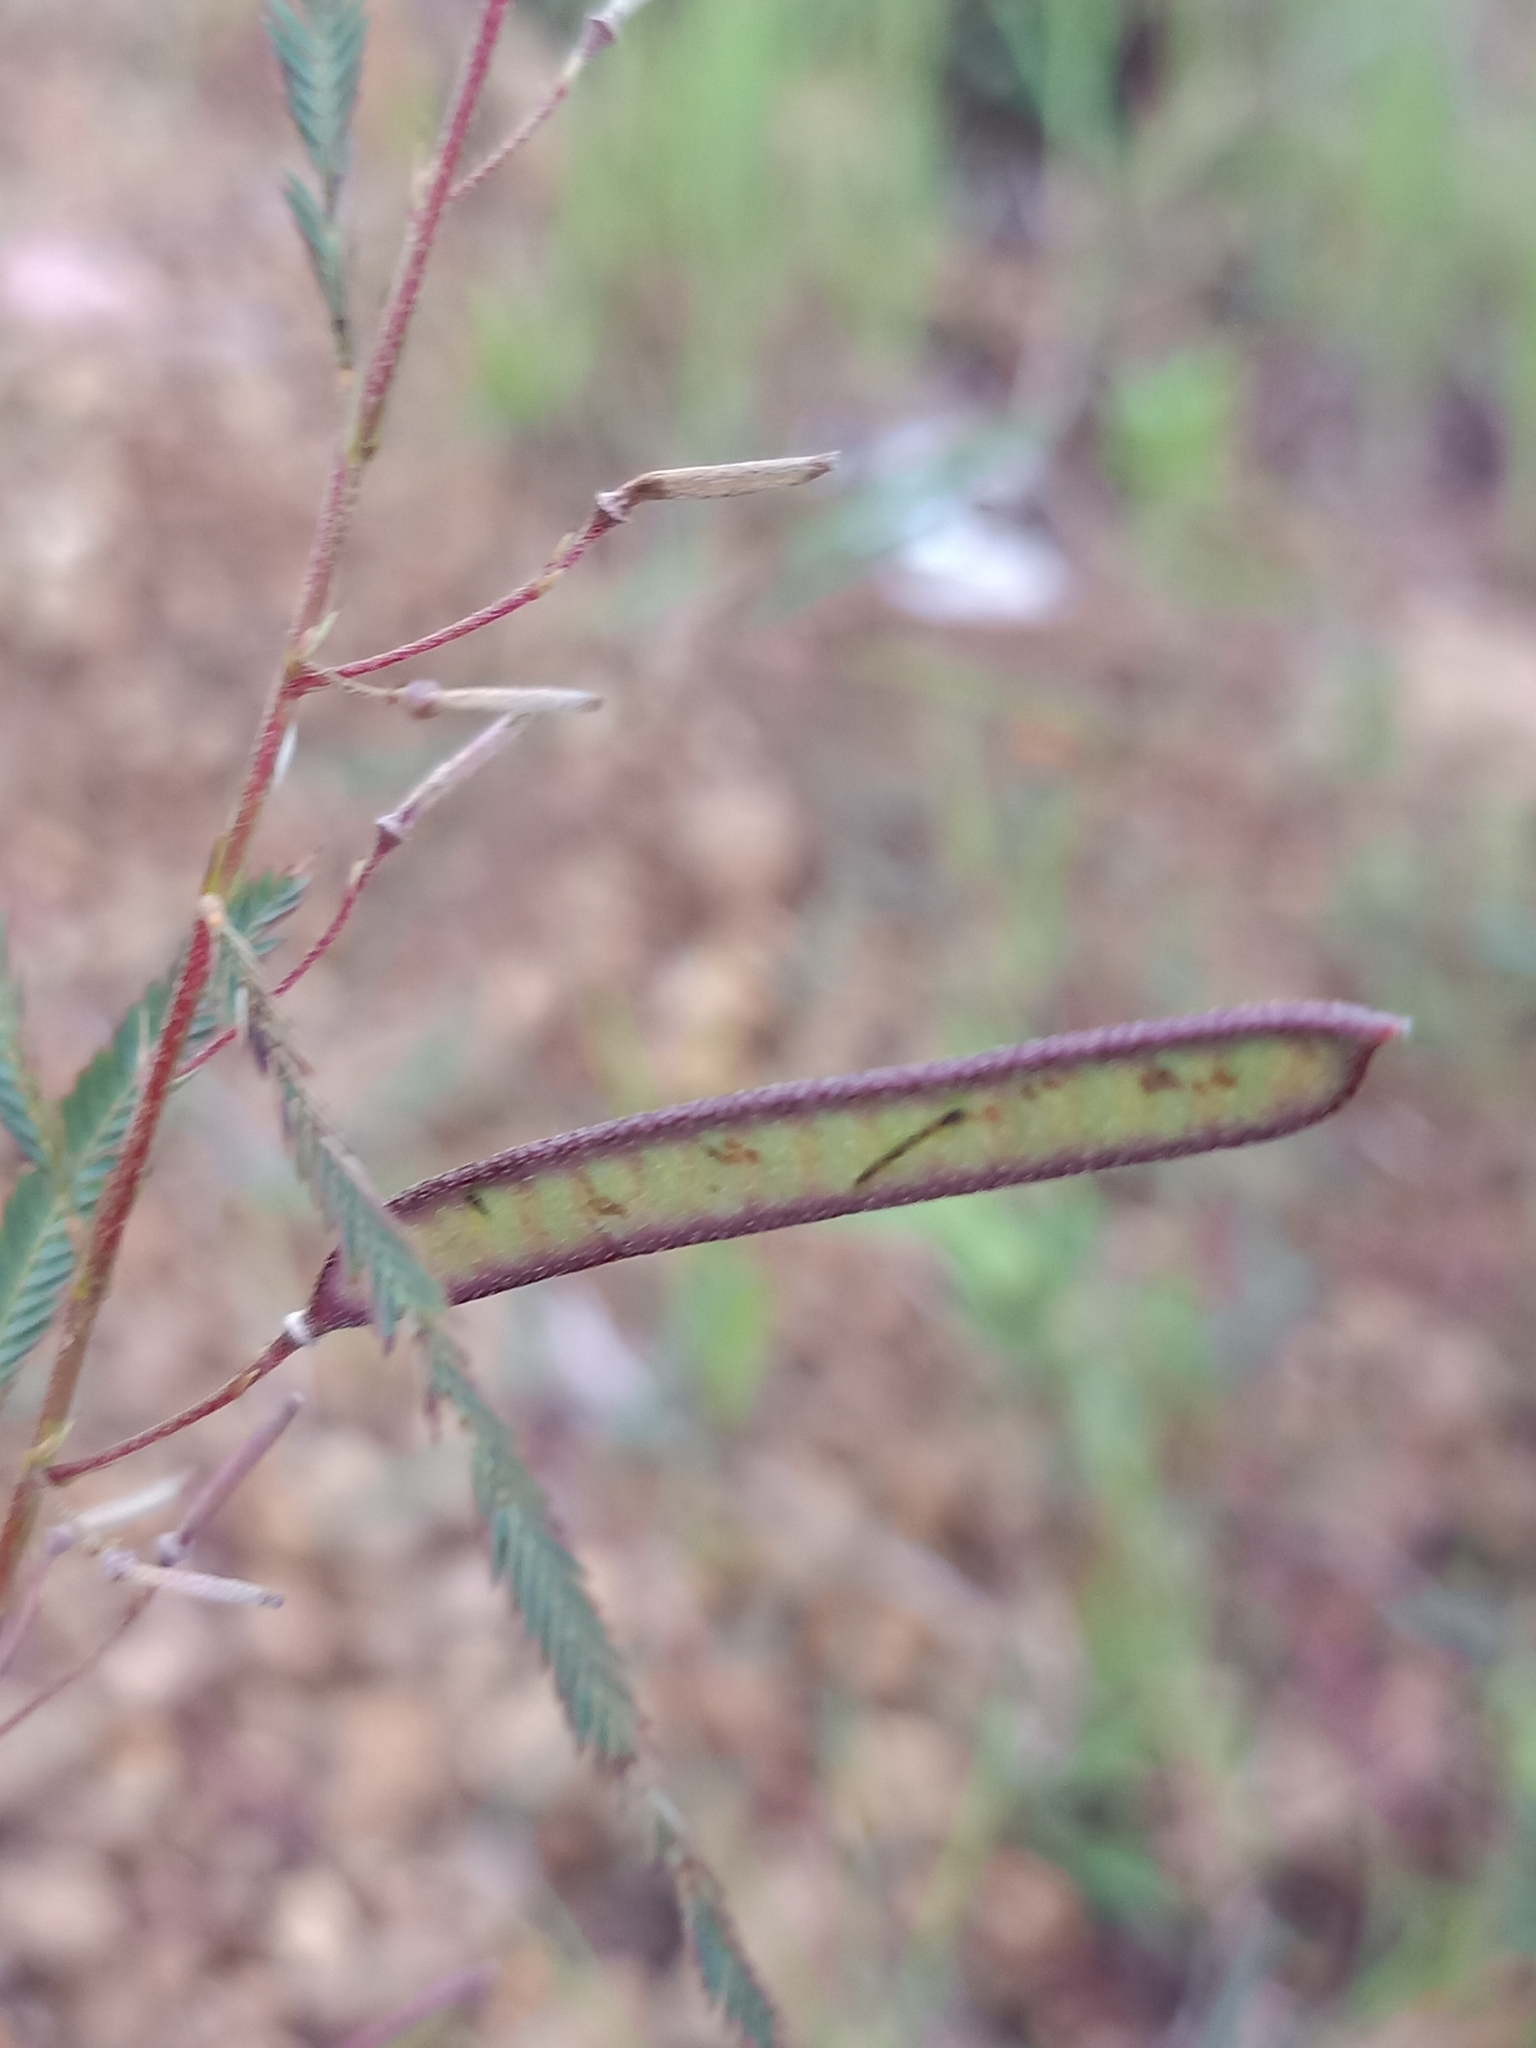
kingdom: Plantae
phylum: Tracheophyta
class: Magnoliopsida
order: Fabales
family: Fabaceae
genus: Chamaecrista
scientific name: Chamaecrista mimosoides
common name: Fish-bone cassia
